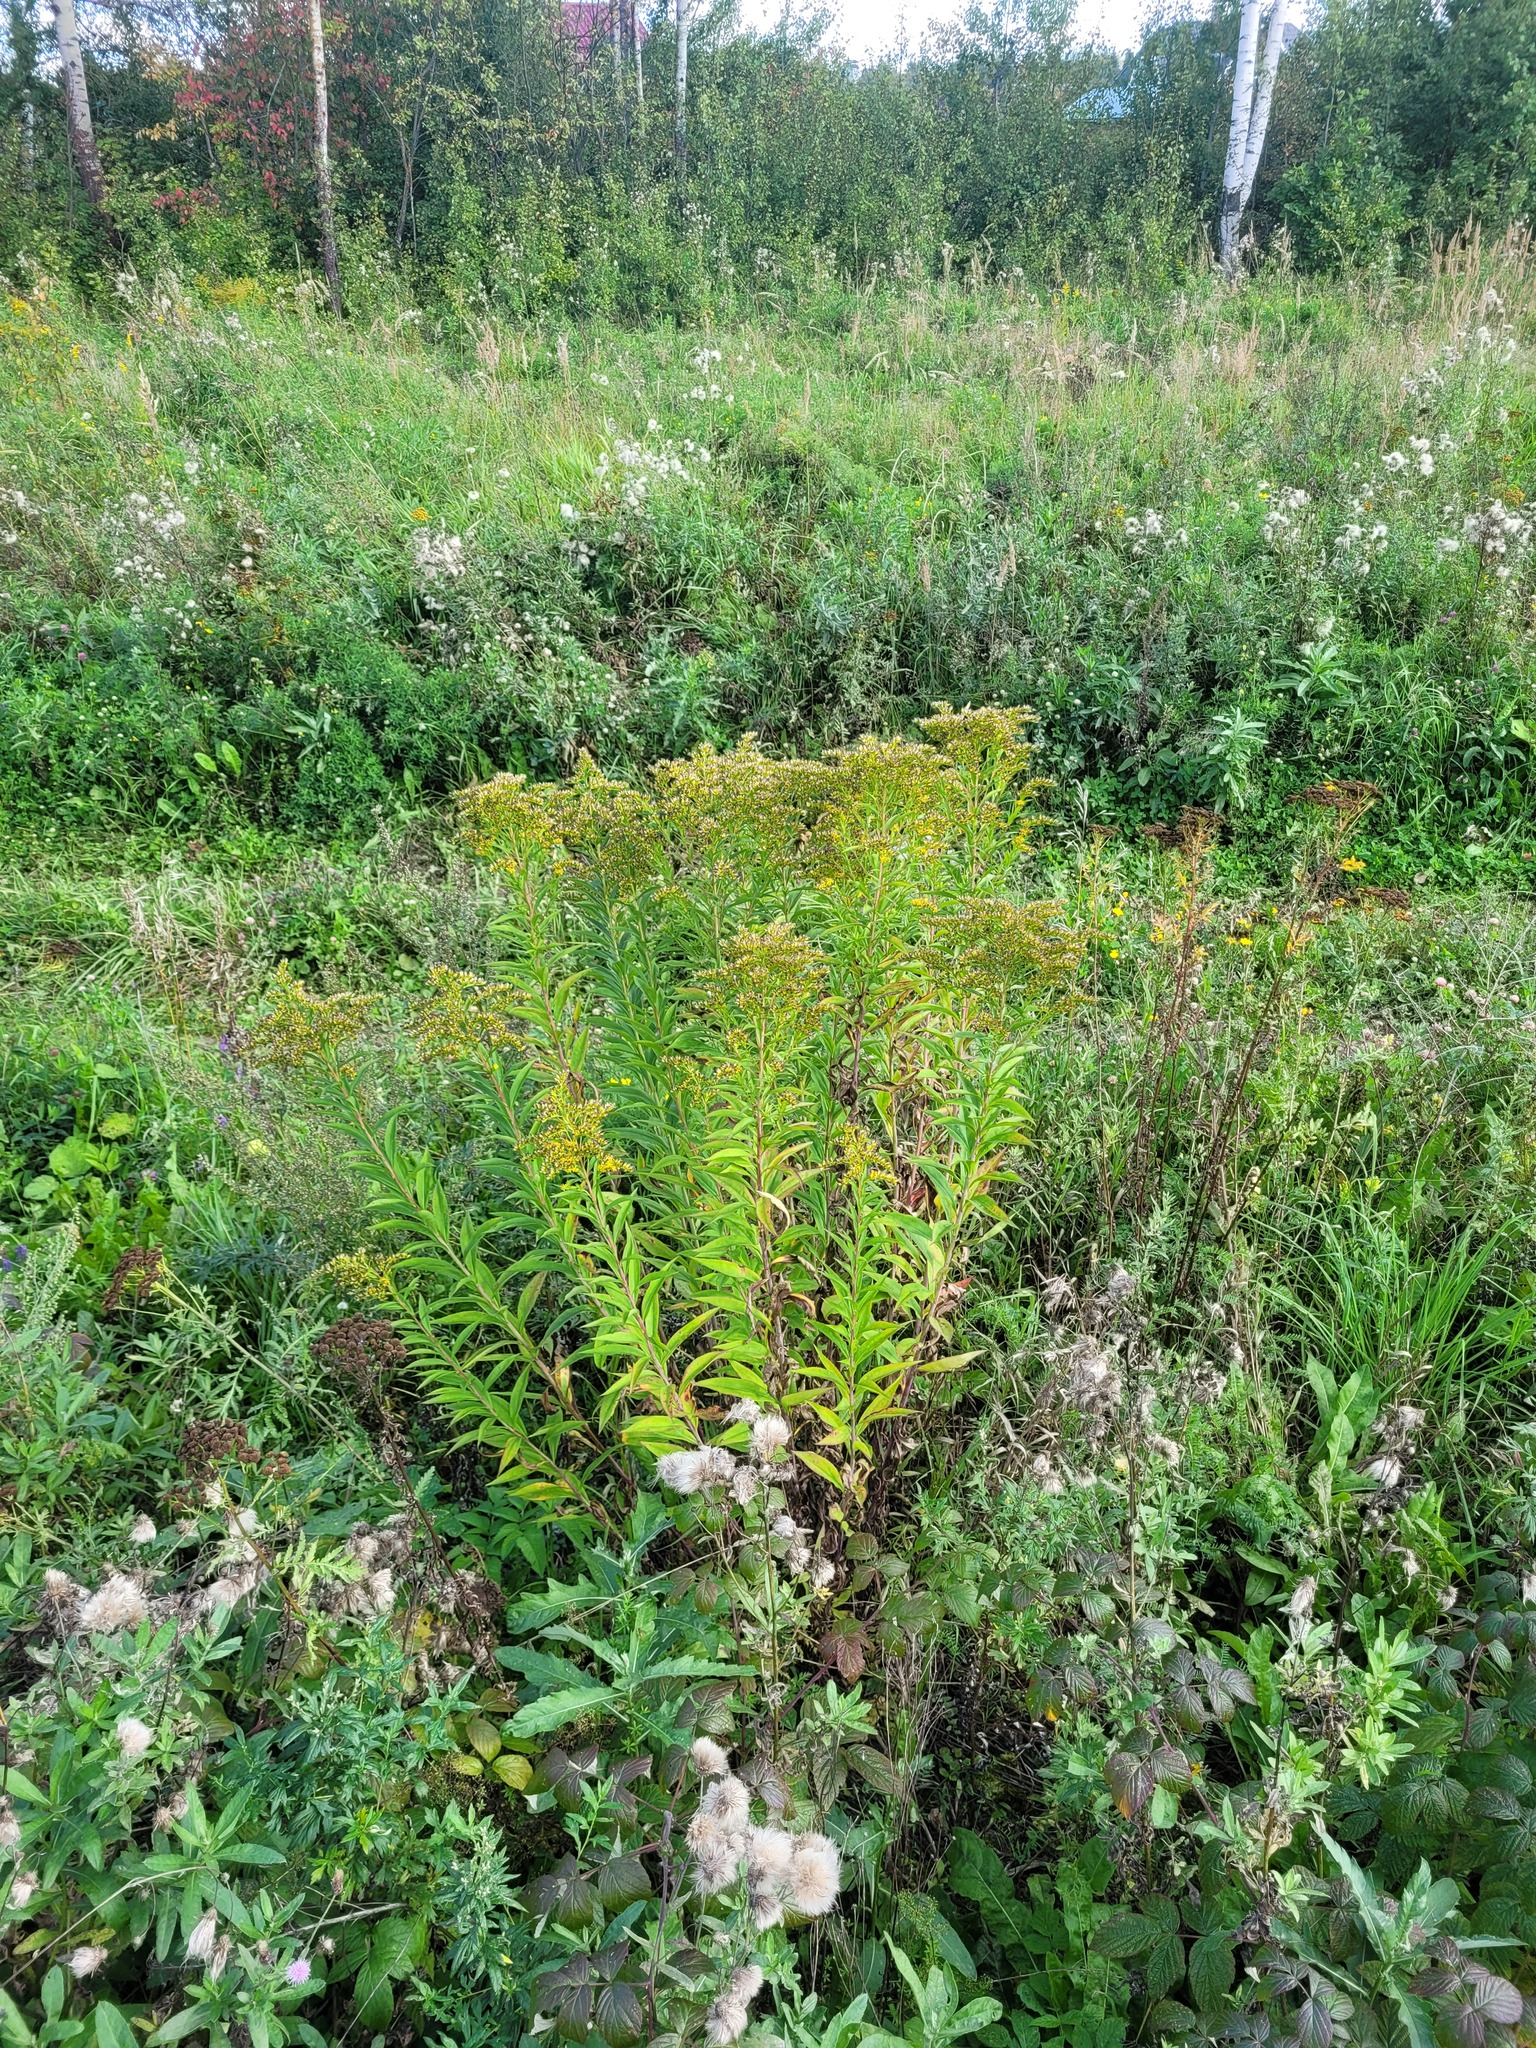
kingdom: Plantae
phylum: Tracheophyta
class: Magnoliopsida
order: Asterales
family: Asteraceae
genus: Solidago
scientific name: Solidago gigantea
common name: Giant goldenrod
